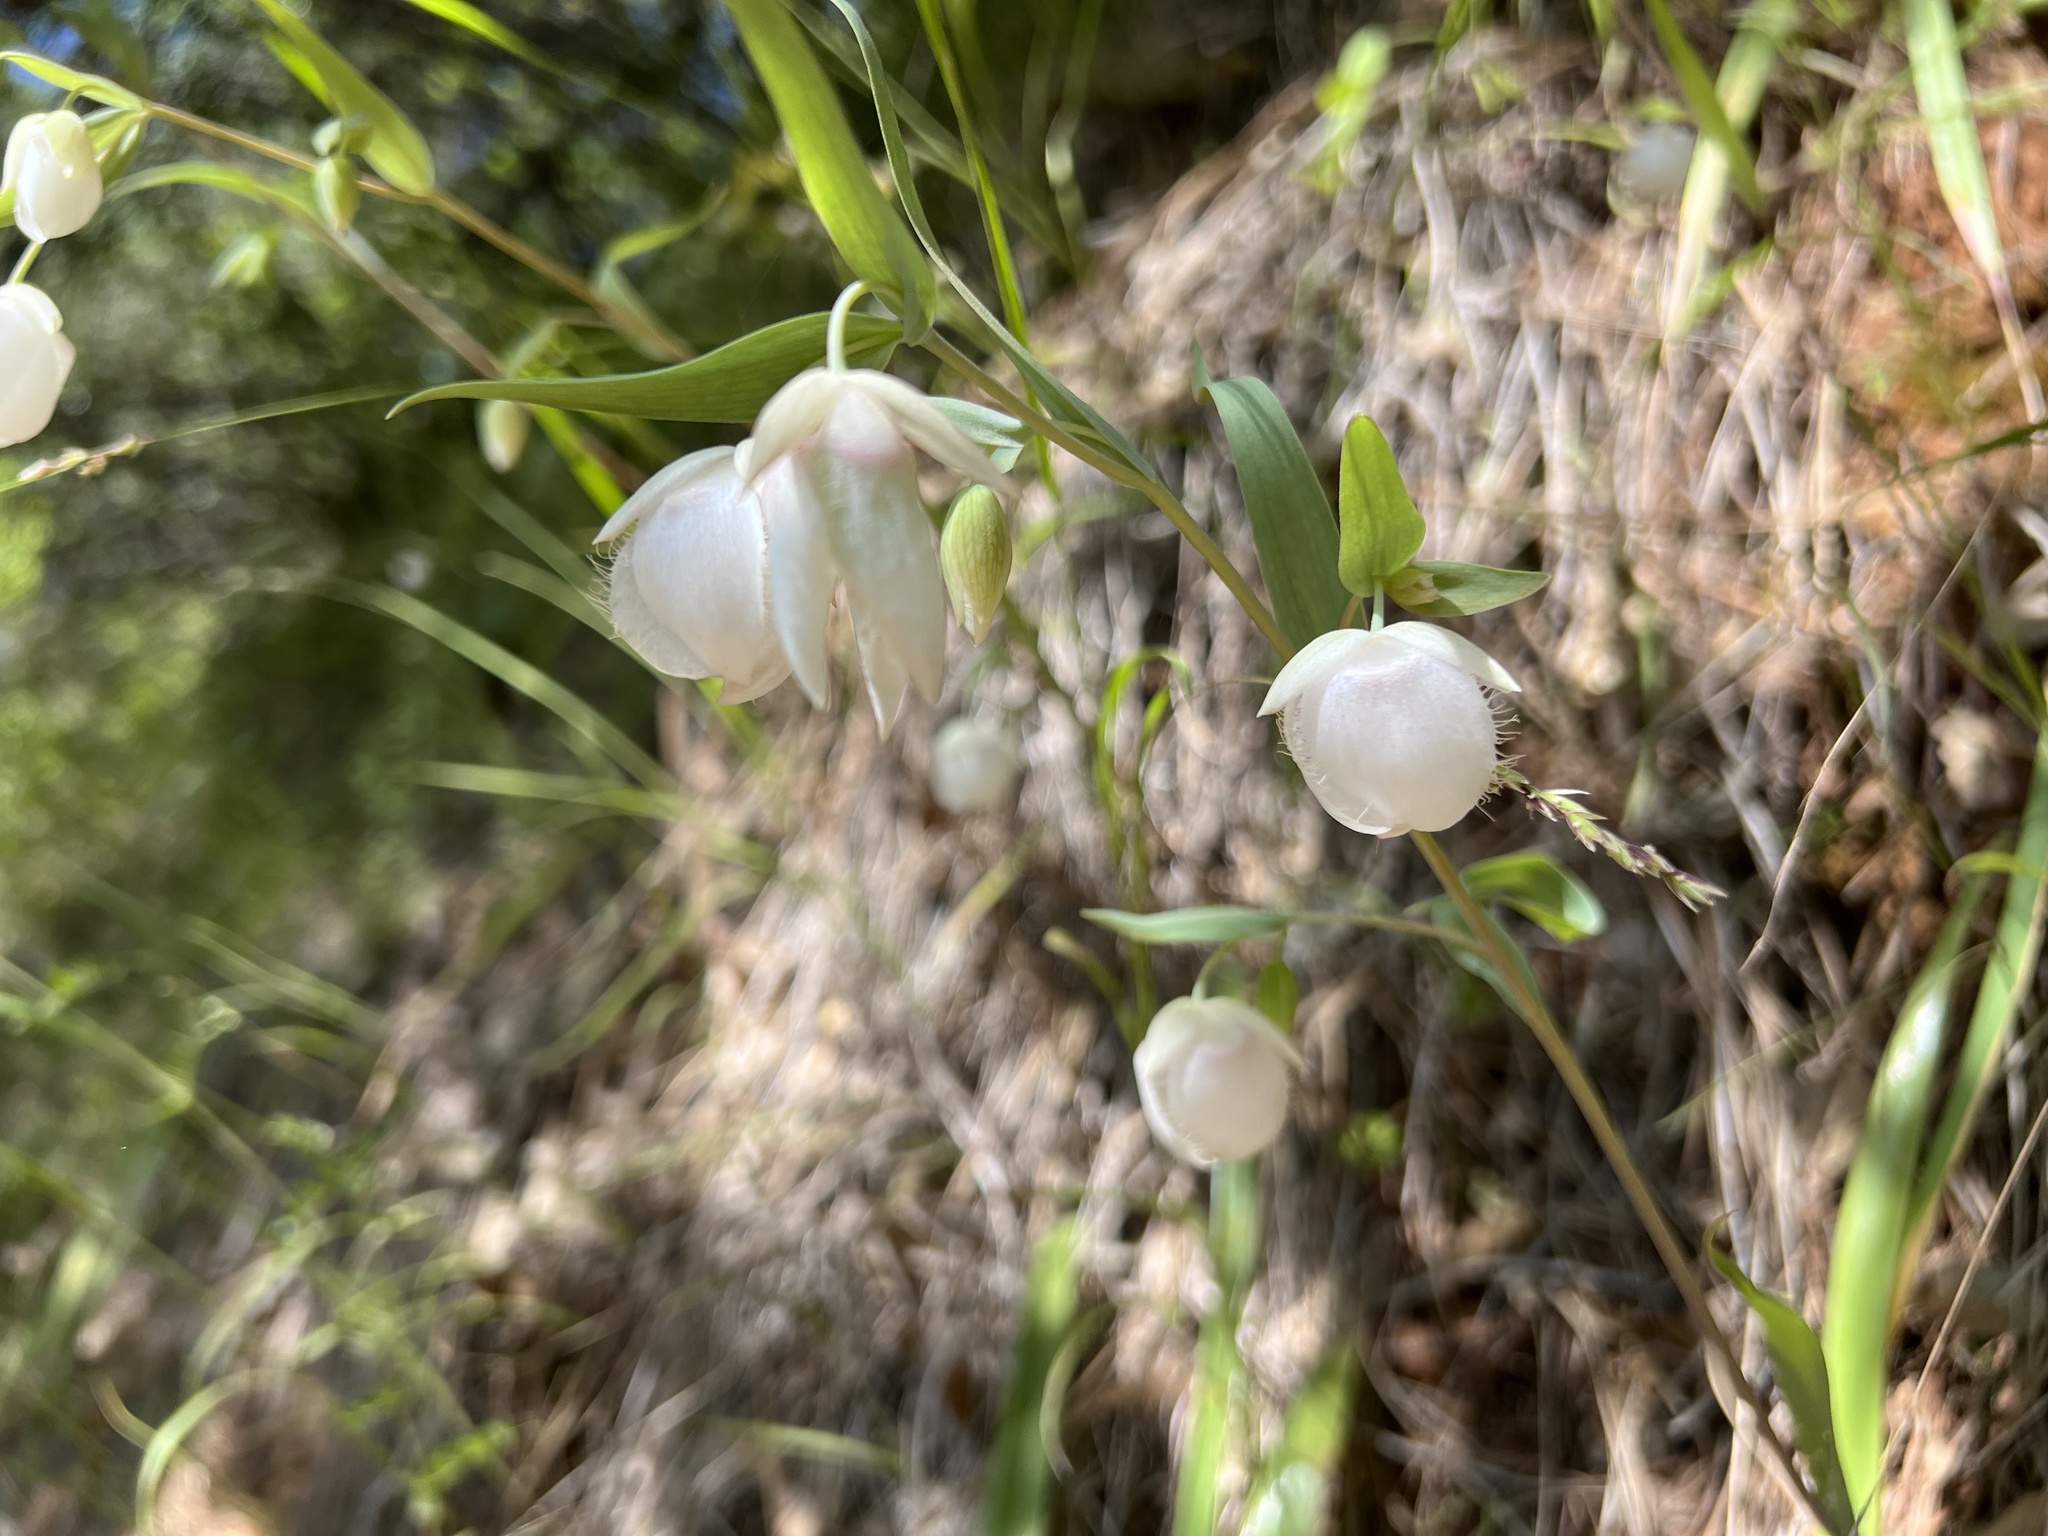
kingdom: Plantae
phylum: Tracheophyta
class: Liliopsida
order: Liliales
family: Liliaceae
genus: Calochortus
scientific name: Calochortus albus
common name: Fairy-lantern
